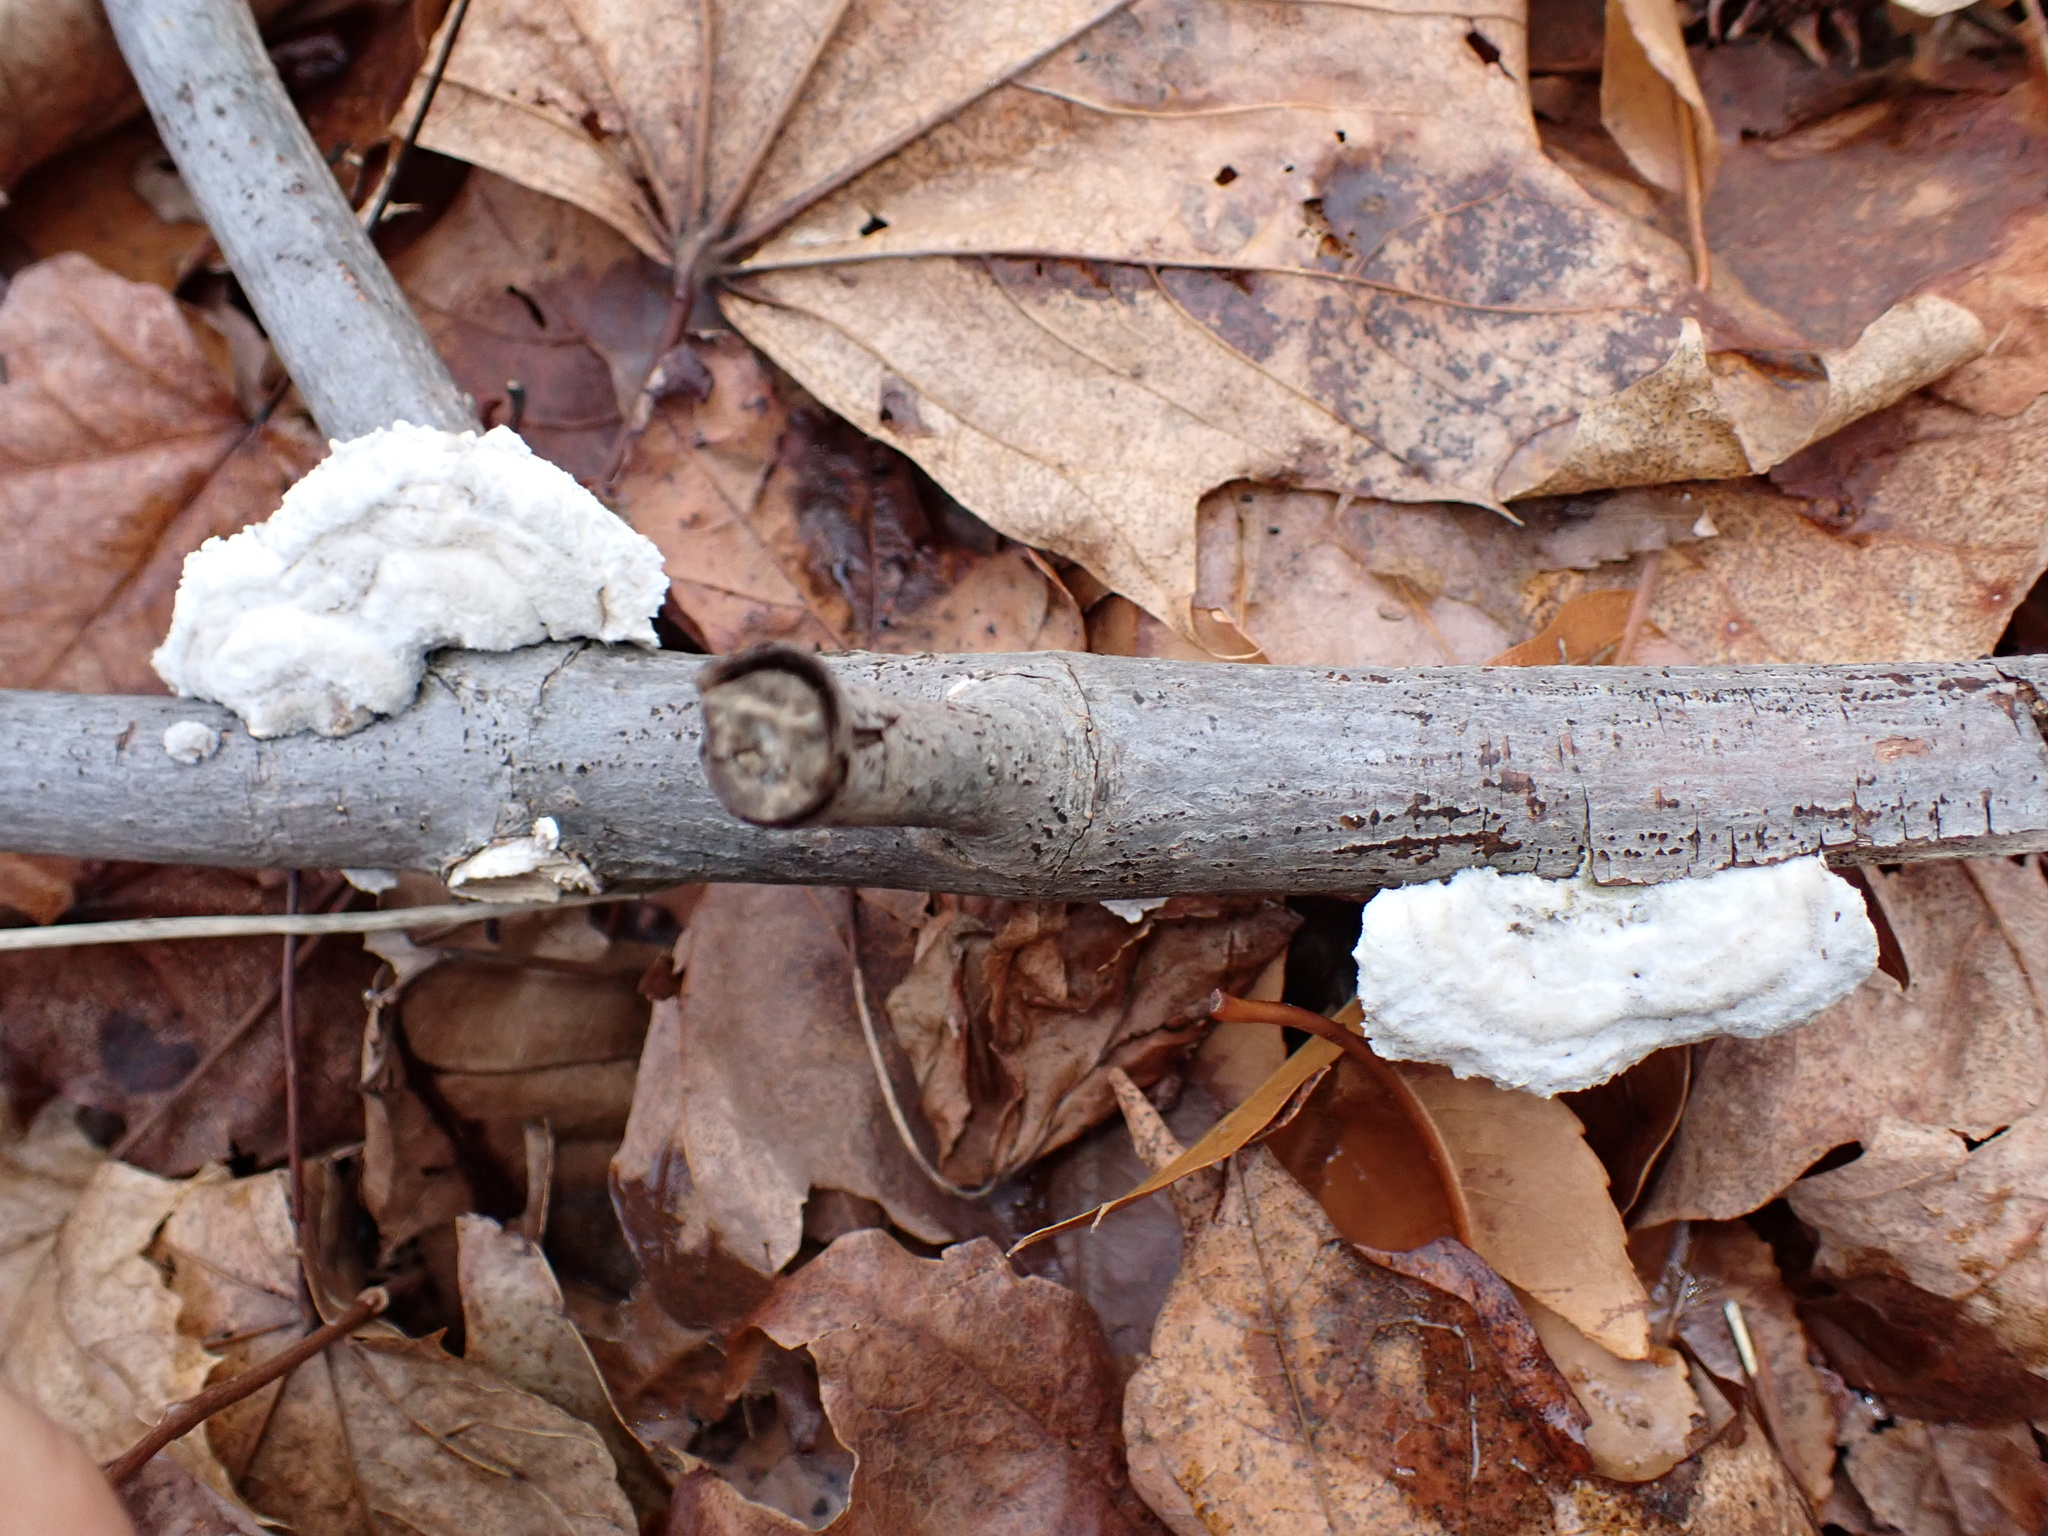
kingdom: Fungi
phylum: Basidiomycota
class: Agaricomycetes
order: Polyporales
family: Polyporaceae
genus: Trametes
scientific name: Trametes hirsuta
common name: Hairy bracket
